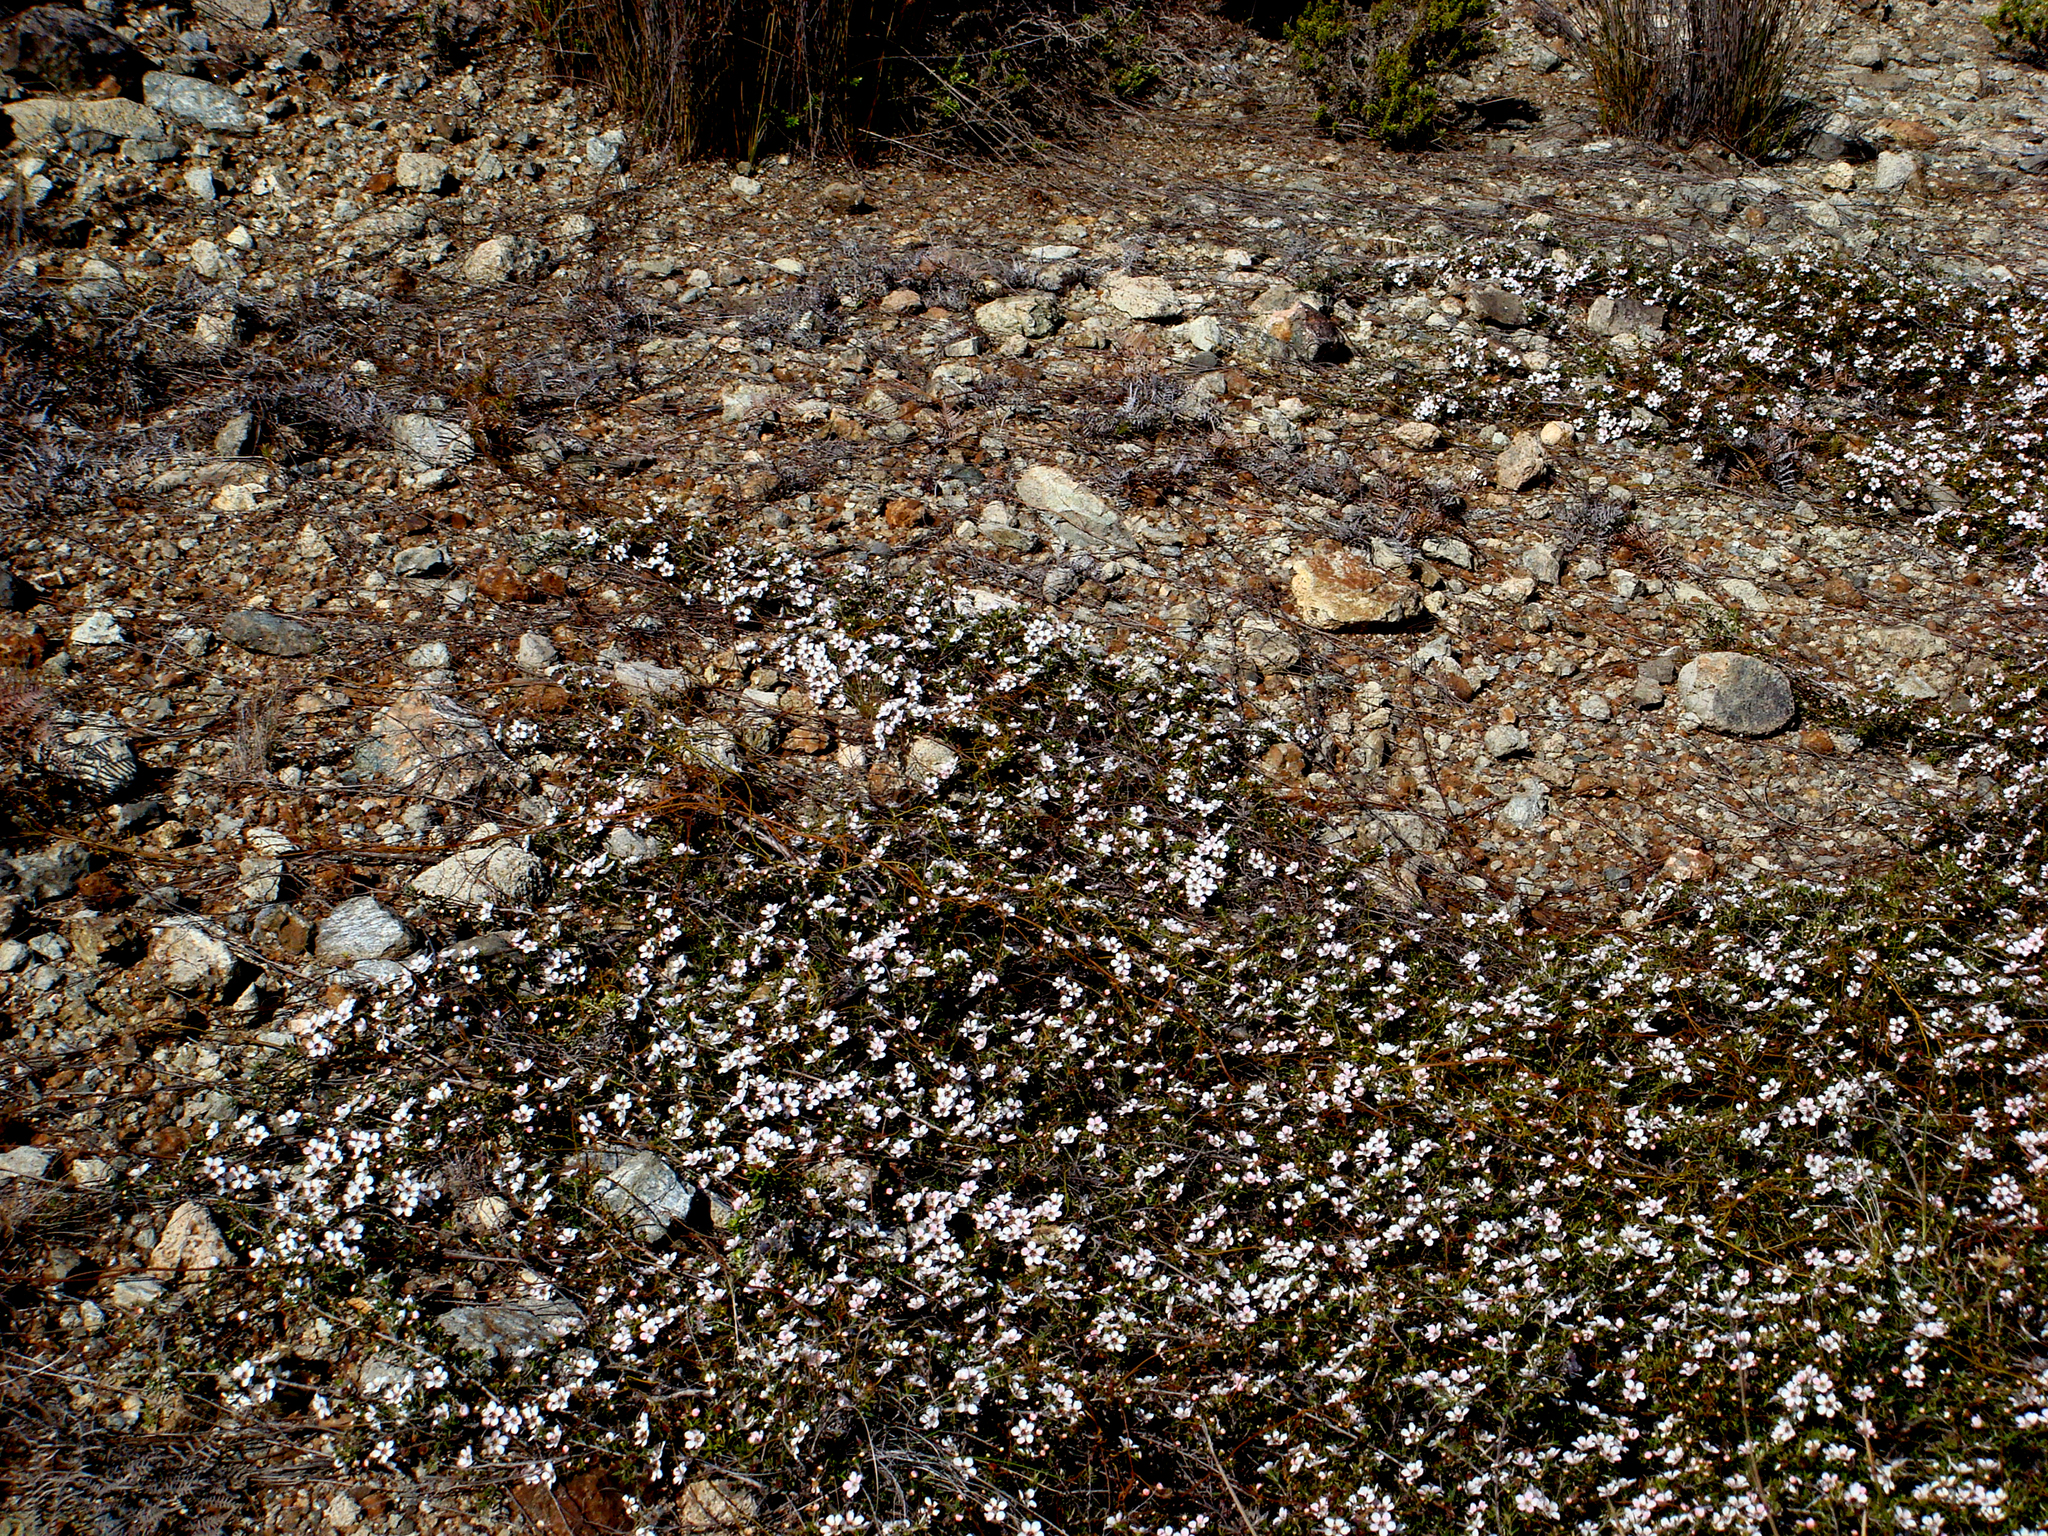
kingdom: Plantae
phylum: Tracheophyta
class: Magnoliopsida
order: Myrtales
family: Myrtaceae
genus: Leptospermum
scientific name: Leptospermum scoparium
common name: Broom tea-tree
